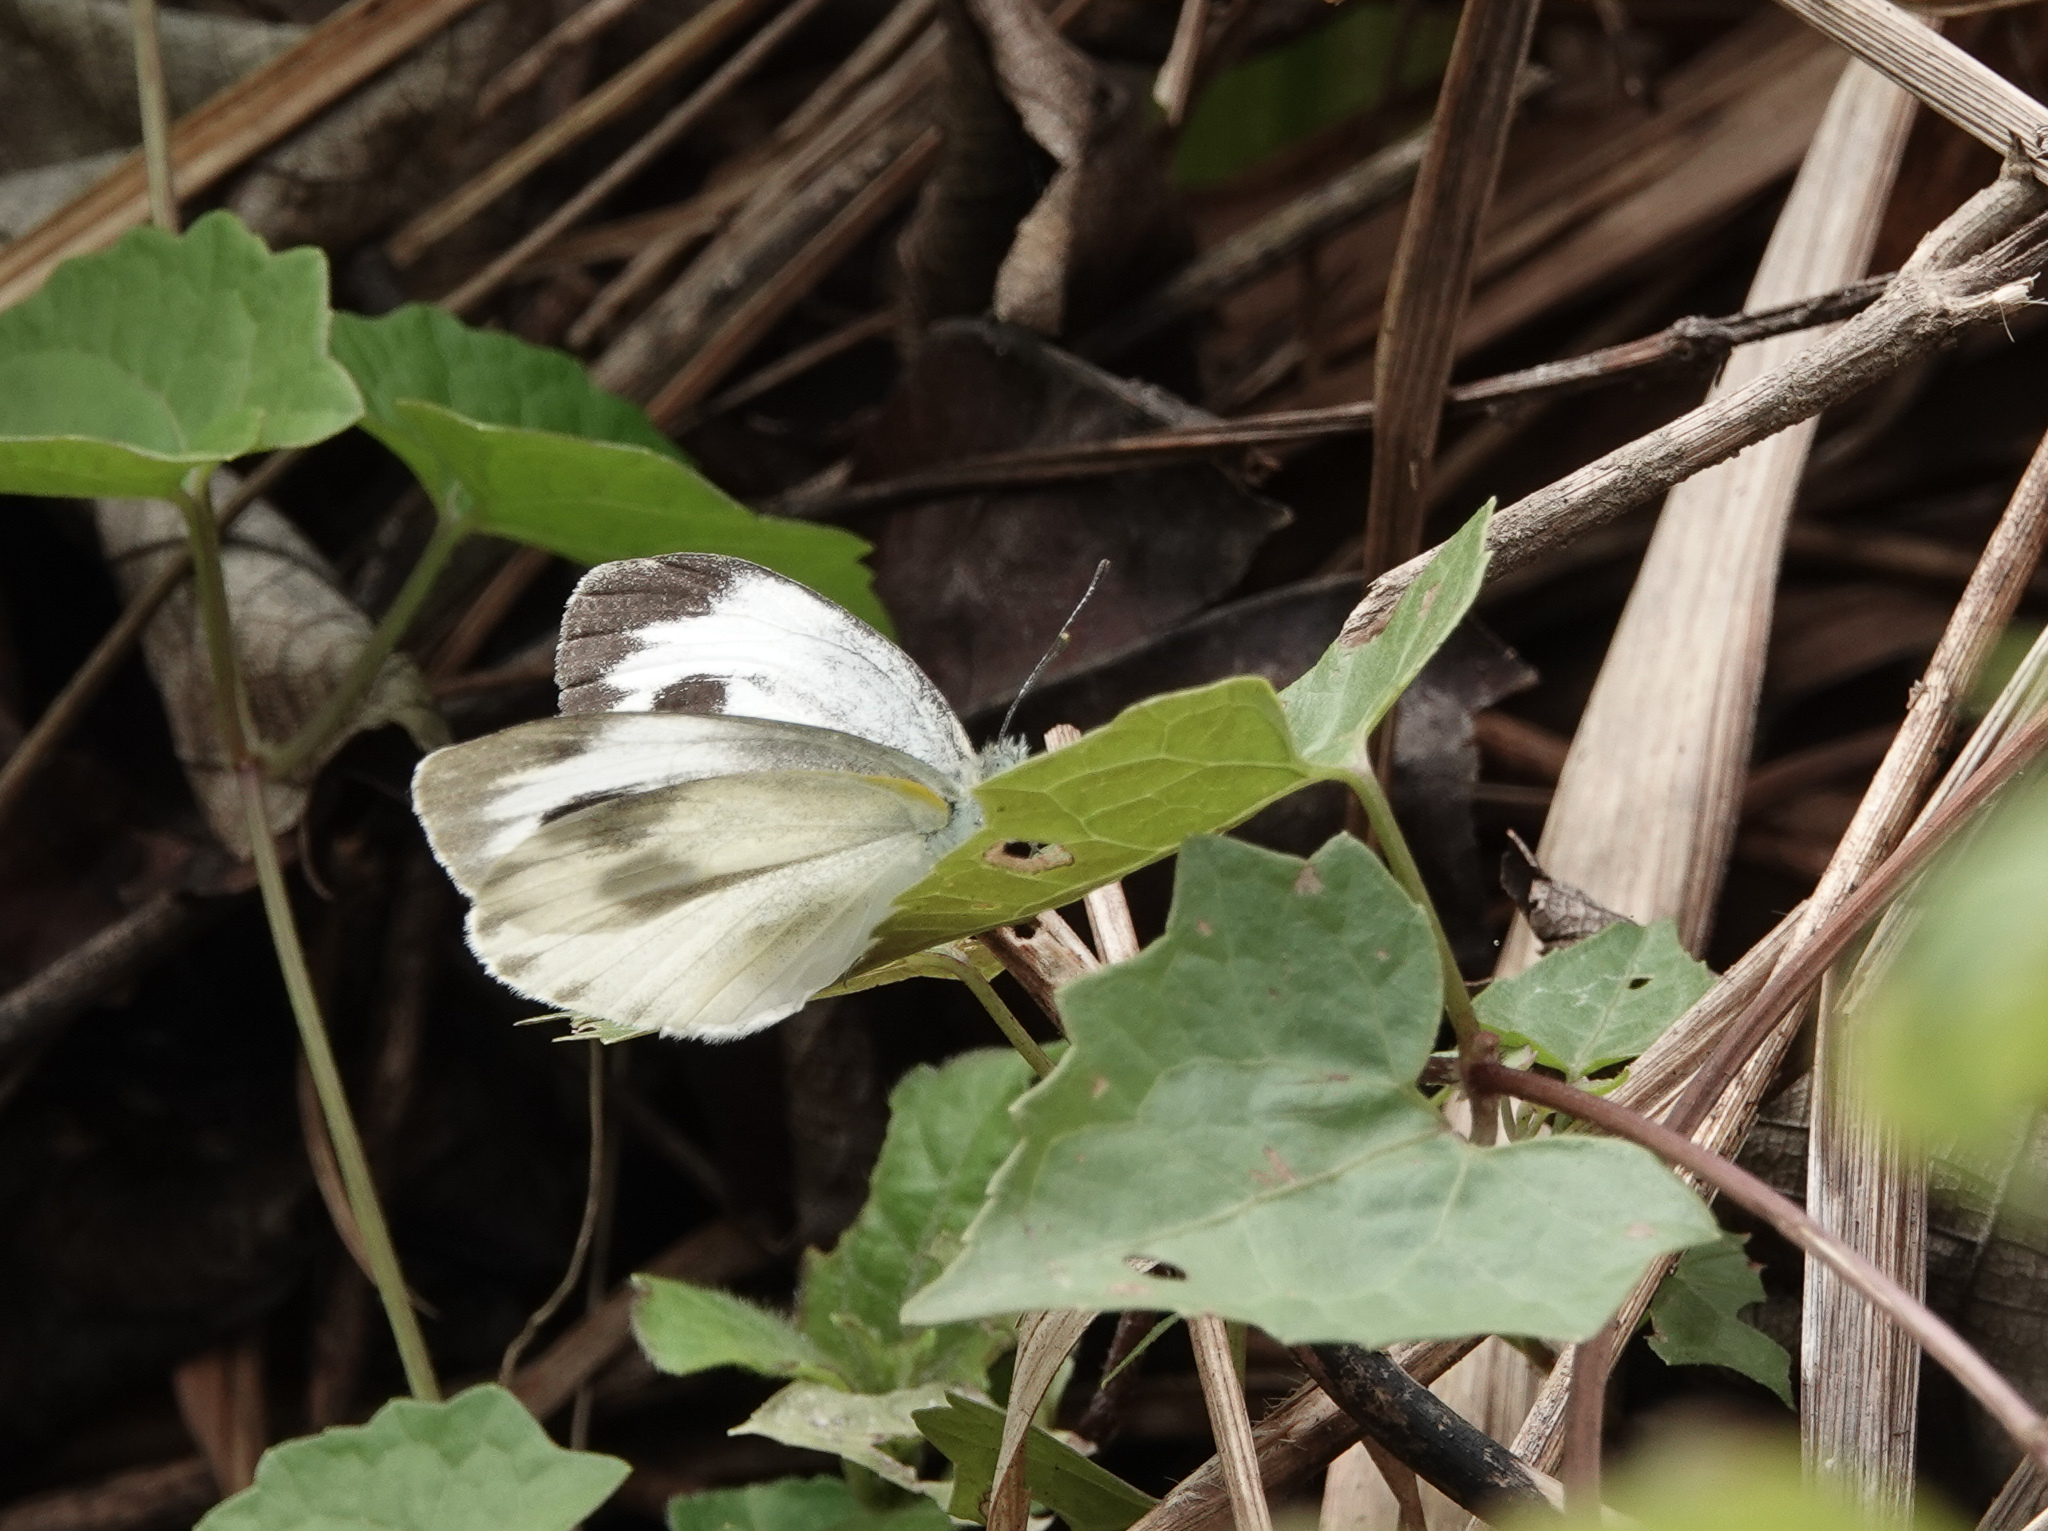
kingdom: Animalia
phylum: Arthropoda
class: Insecta
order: Lepidoptera
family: Pieridae
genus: Pieris
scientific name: Pieris canidia
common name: Indian cabbage white
